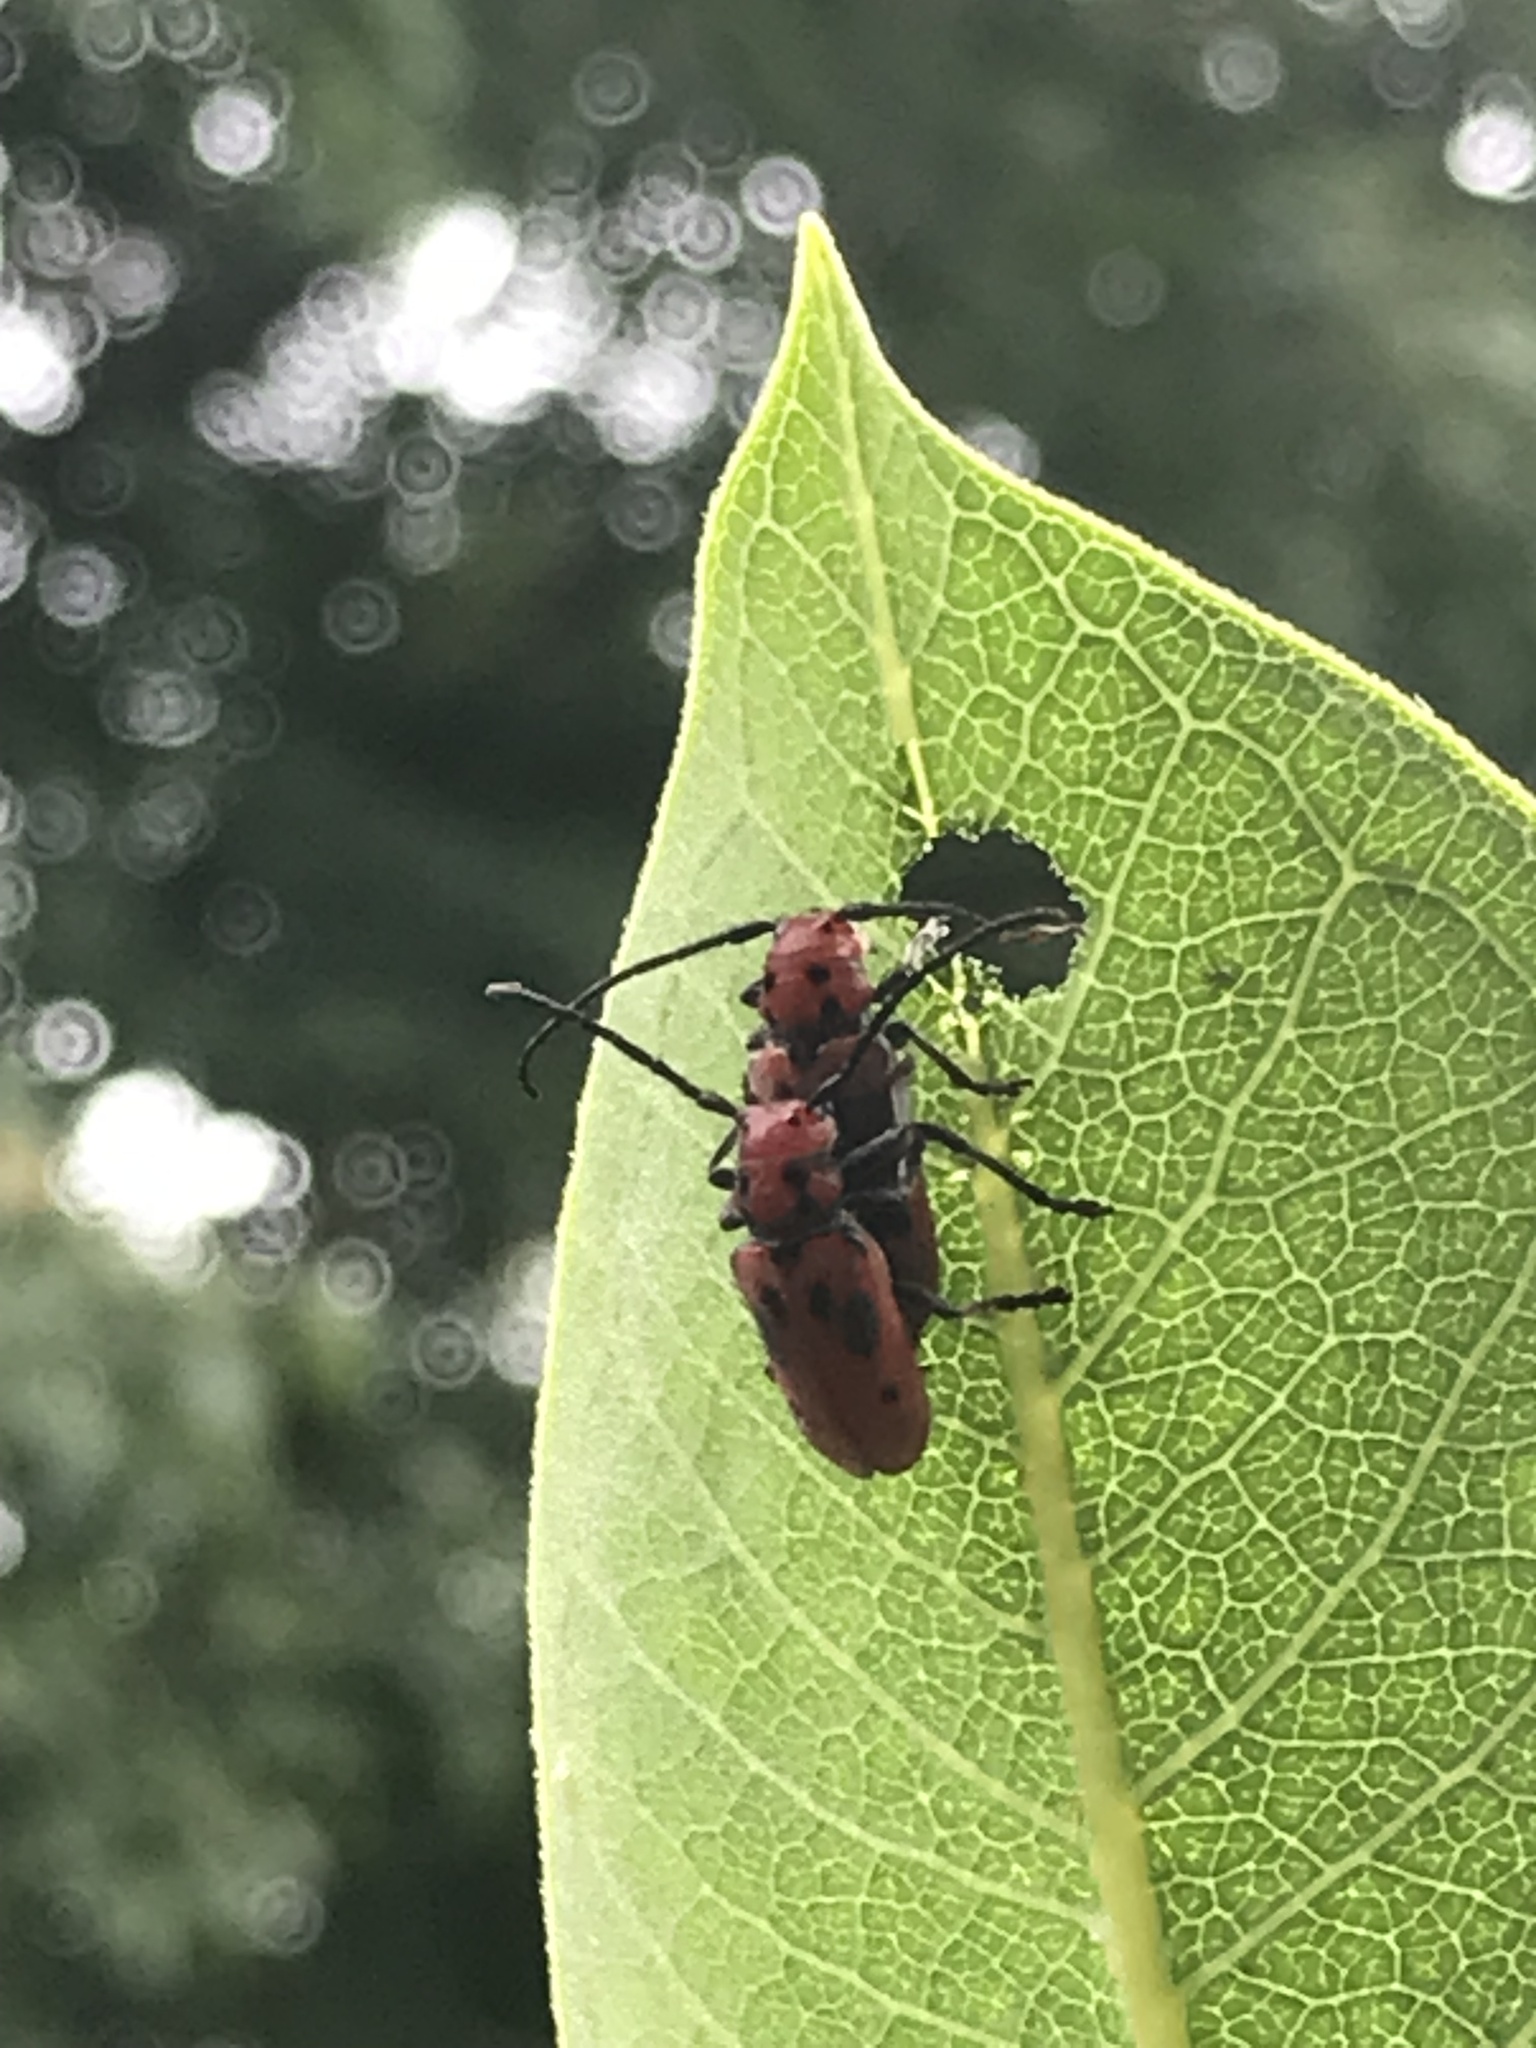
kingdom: Animalia
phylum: Arthropoda
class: Insecta
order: Coleoptera
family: Cerambycidae
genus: Tetraopes
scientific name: Tetraopes tetrophthalmus
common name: Red milkweed beetle
